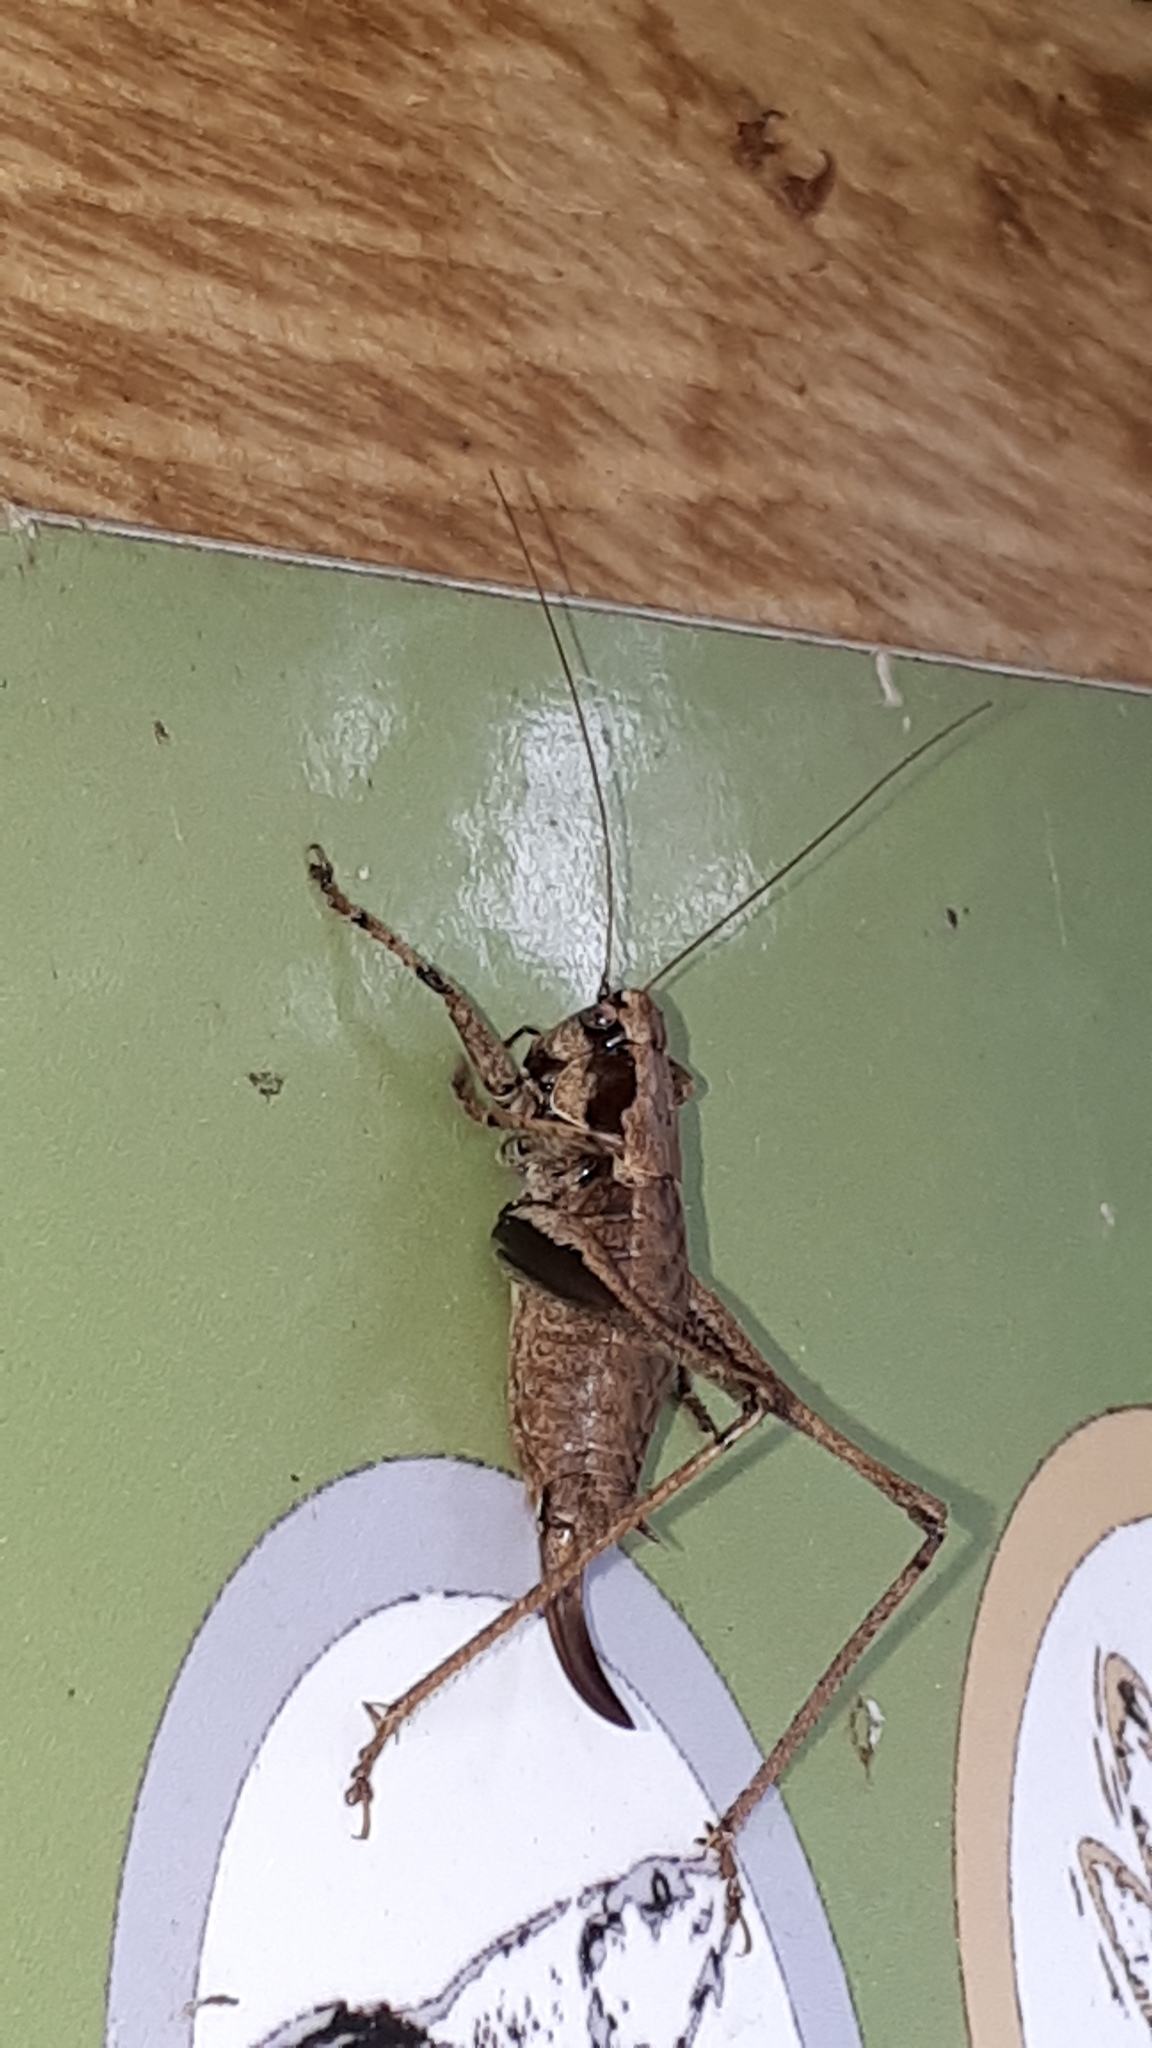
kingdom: Animalia
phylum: Arthropoda
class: Insecta
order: Orthoptera
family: Tettigoniidae
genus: Pholidoptera
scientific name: Pholidoptera griseoaptera
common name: Dark bush-cricket
